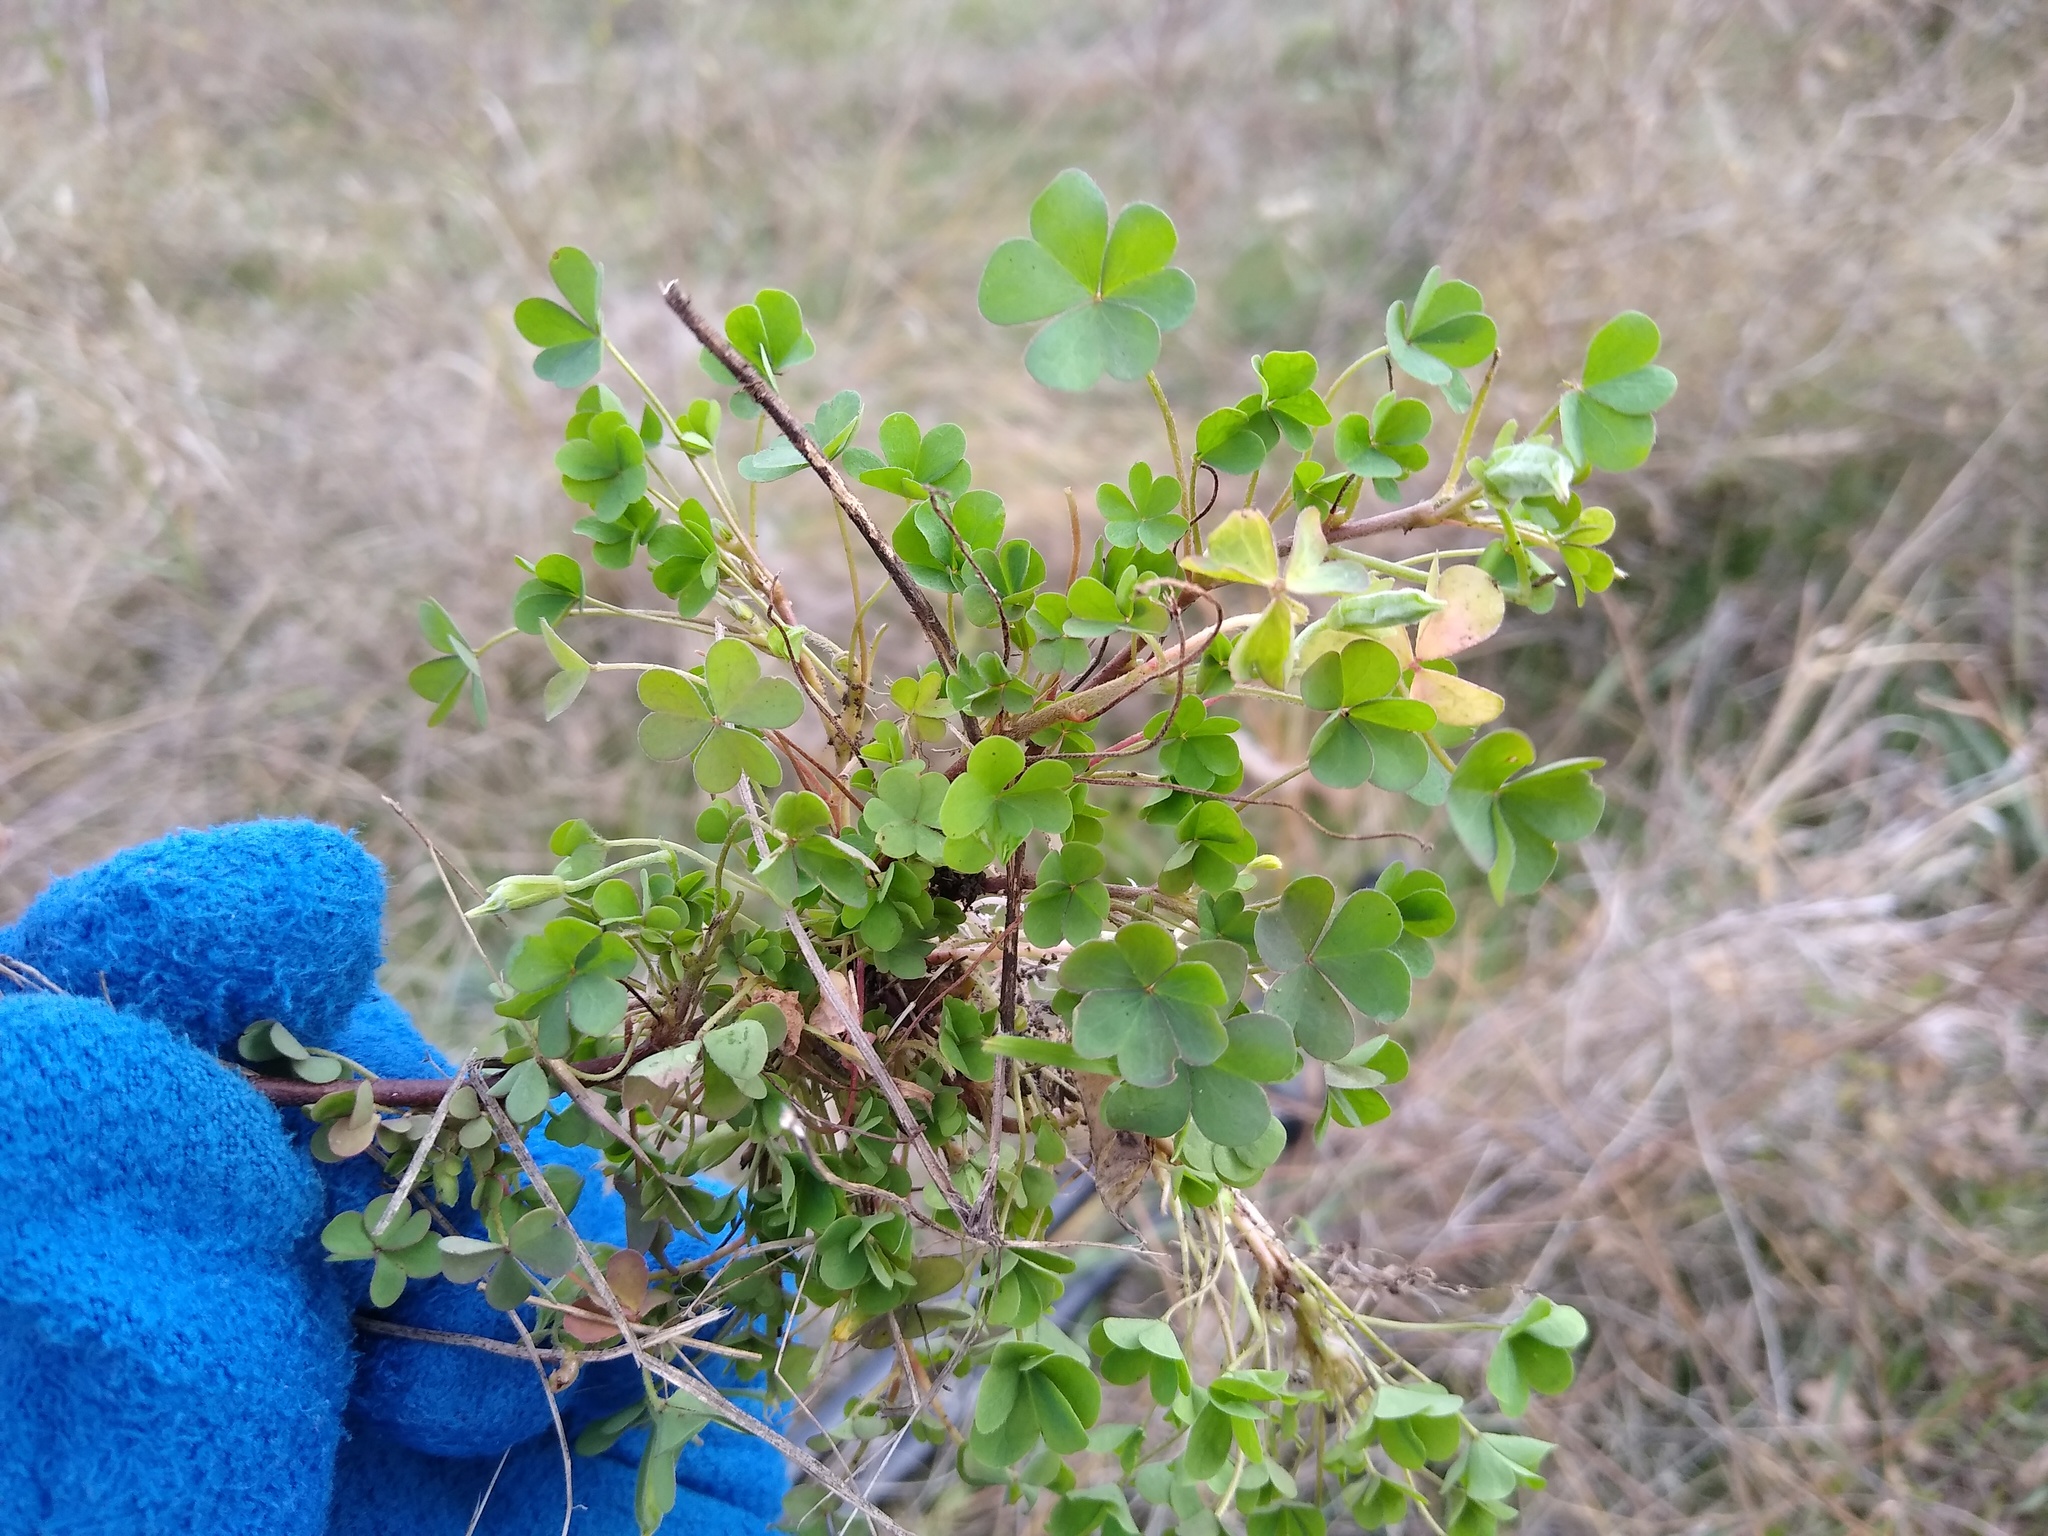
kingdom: Plantae
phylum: Tracheophyta
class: Magnoliopsida
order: Oxalidales
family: Oxalidaceae
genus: Oxalis
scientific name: Oxalis corniculata
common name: Procumbent yellow-sorrel
